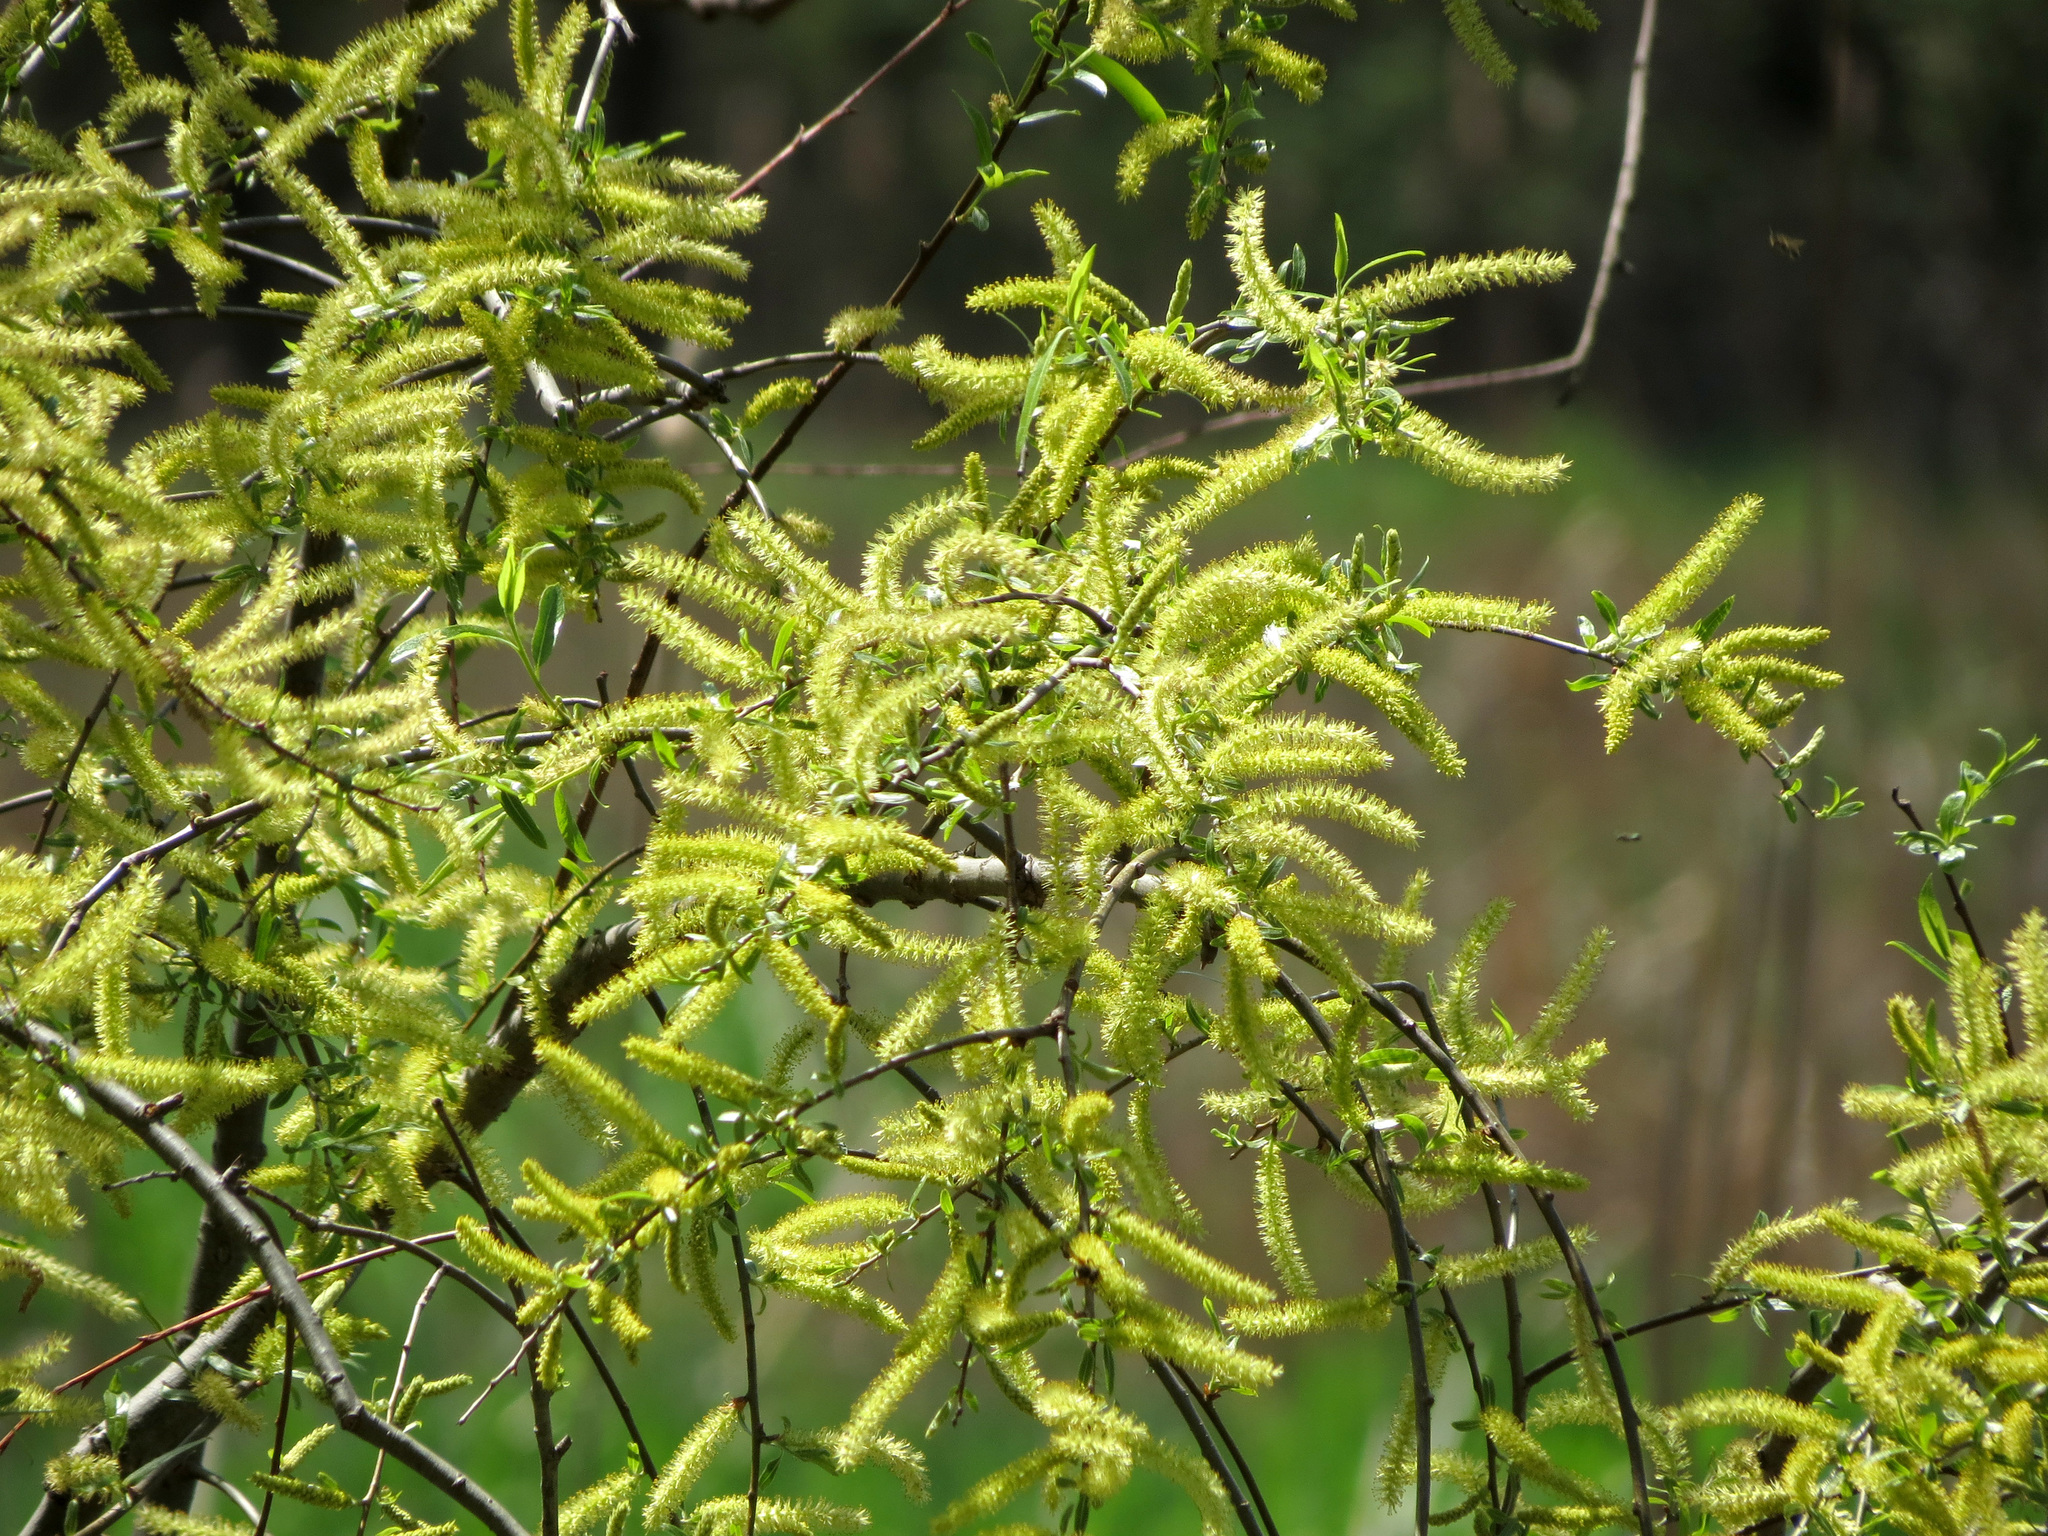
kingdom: Plantae
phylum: Tracheophyta
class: Magnoliopsida
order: Malpighiales
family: Salicaceae
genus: Salix
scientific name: Salix nigra
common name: Black willow
